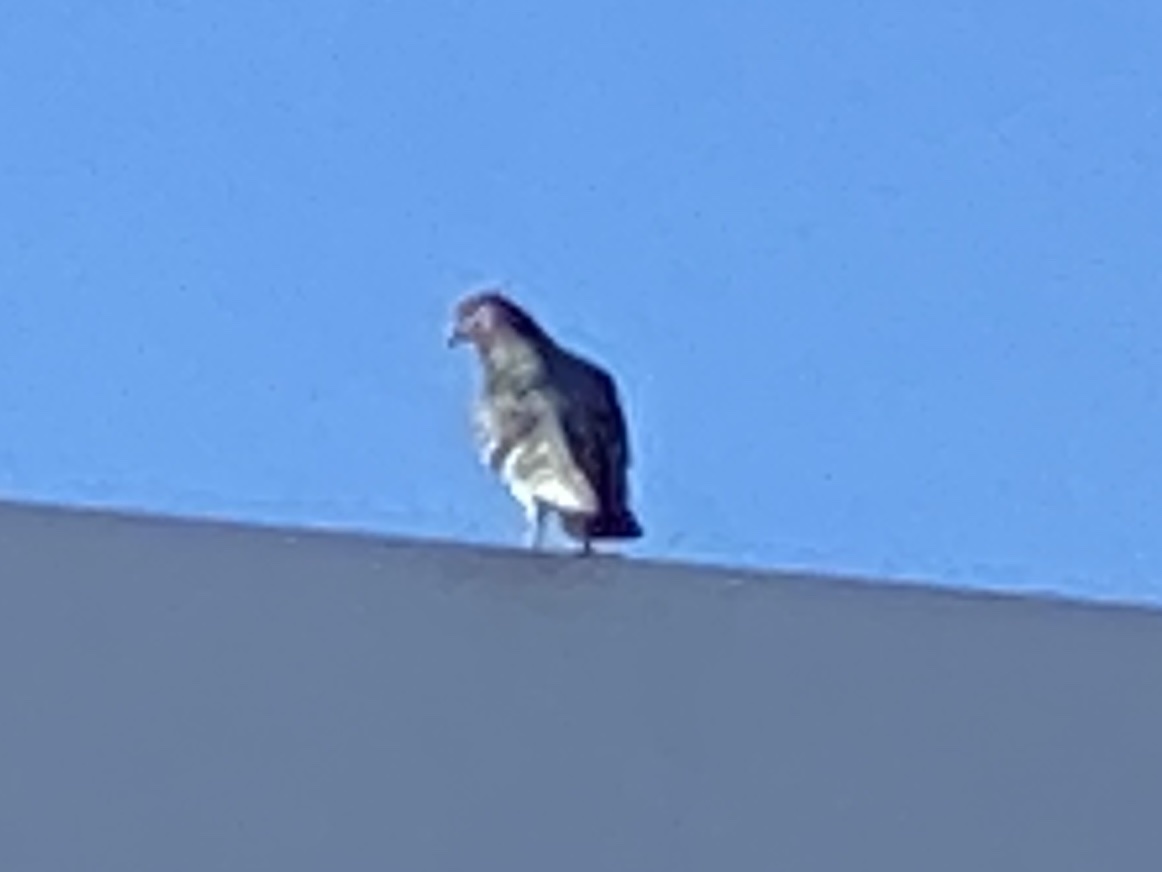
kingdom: Animalia
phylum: Chordata
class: Aves
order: Columbiformes
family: Columbidae
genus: Columba
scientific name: Columba livia
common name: Rock pigeon
